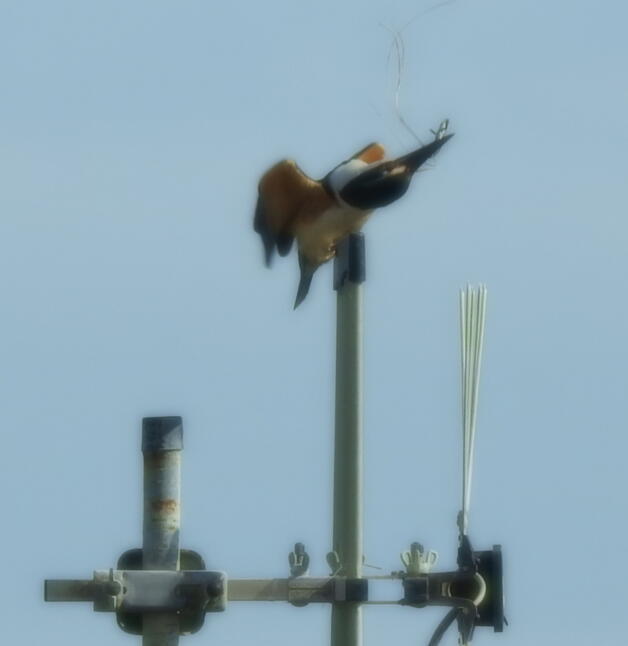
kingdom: Animalia
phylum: Chordata
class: Aves
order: Coraciiformes
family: Alcedinidae
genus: Todiramphus
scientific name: Todiramphus sanctus
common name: Sacred kingfisher
